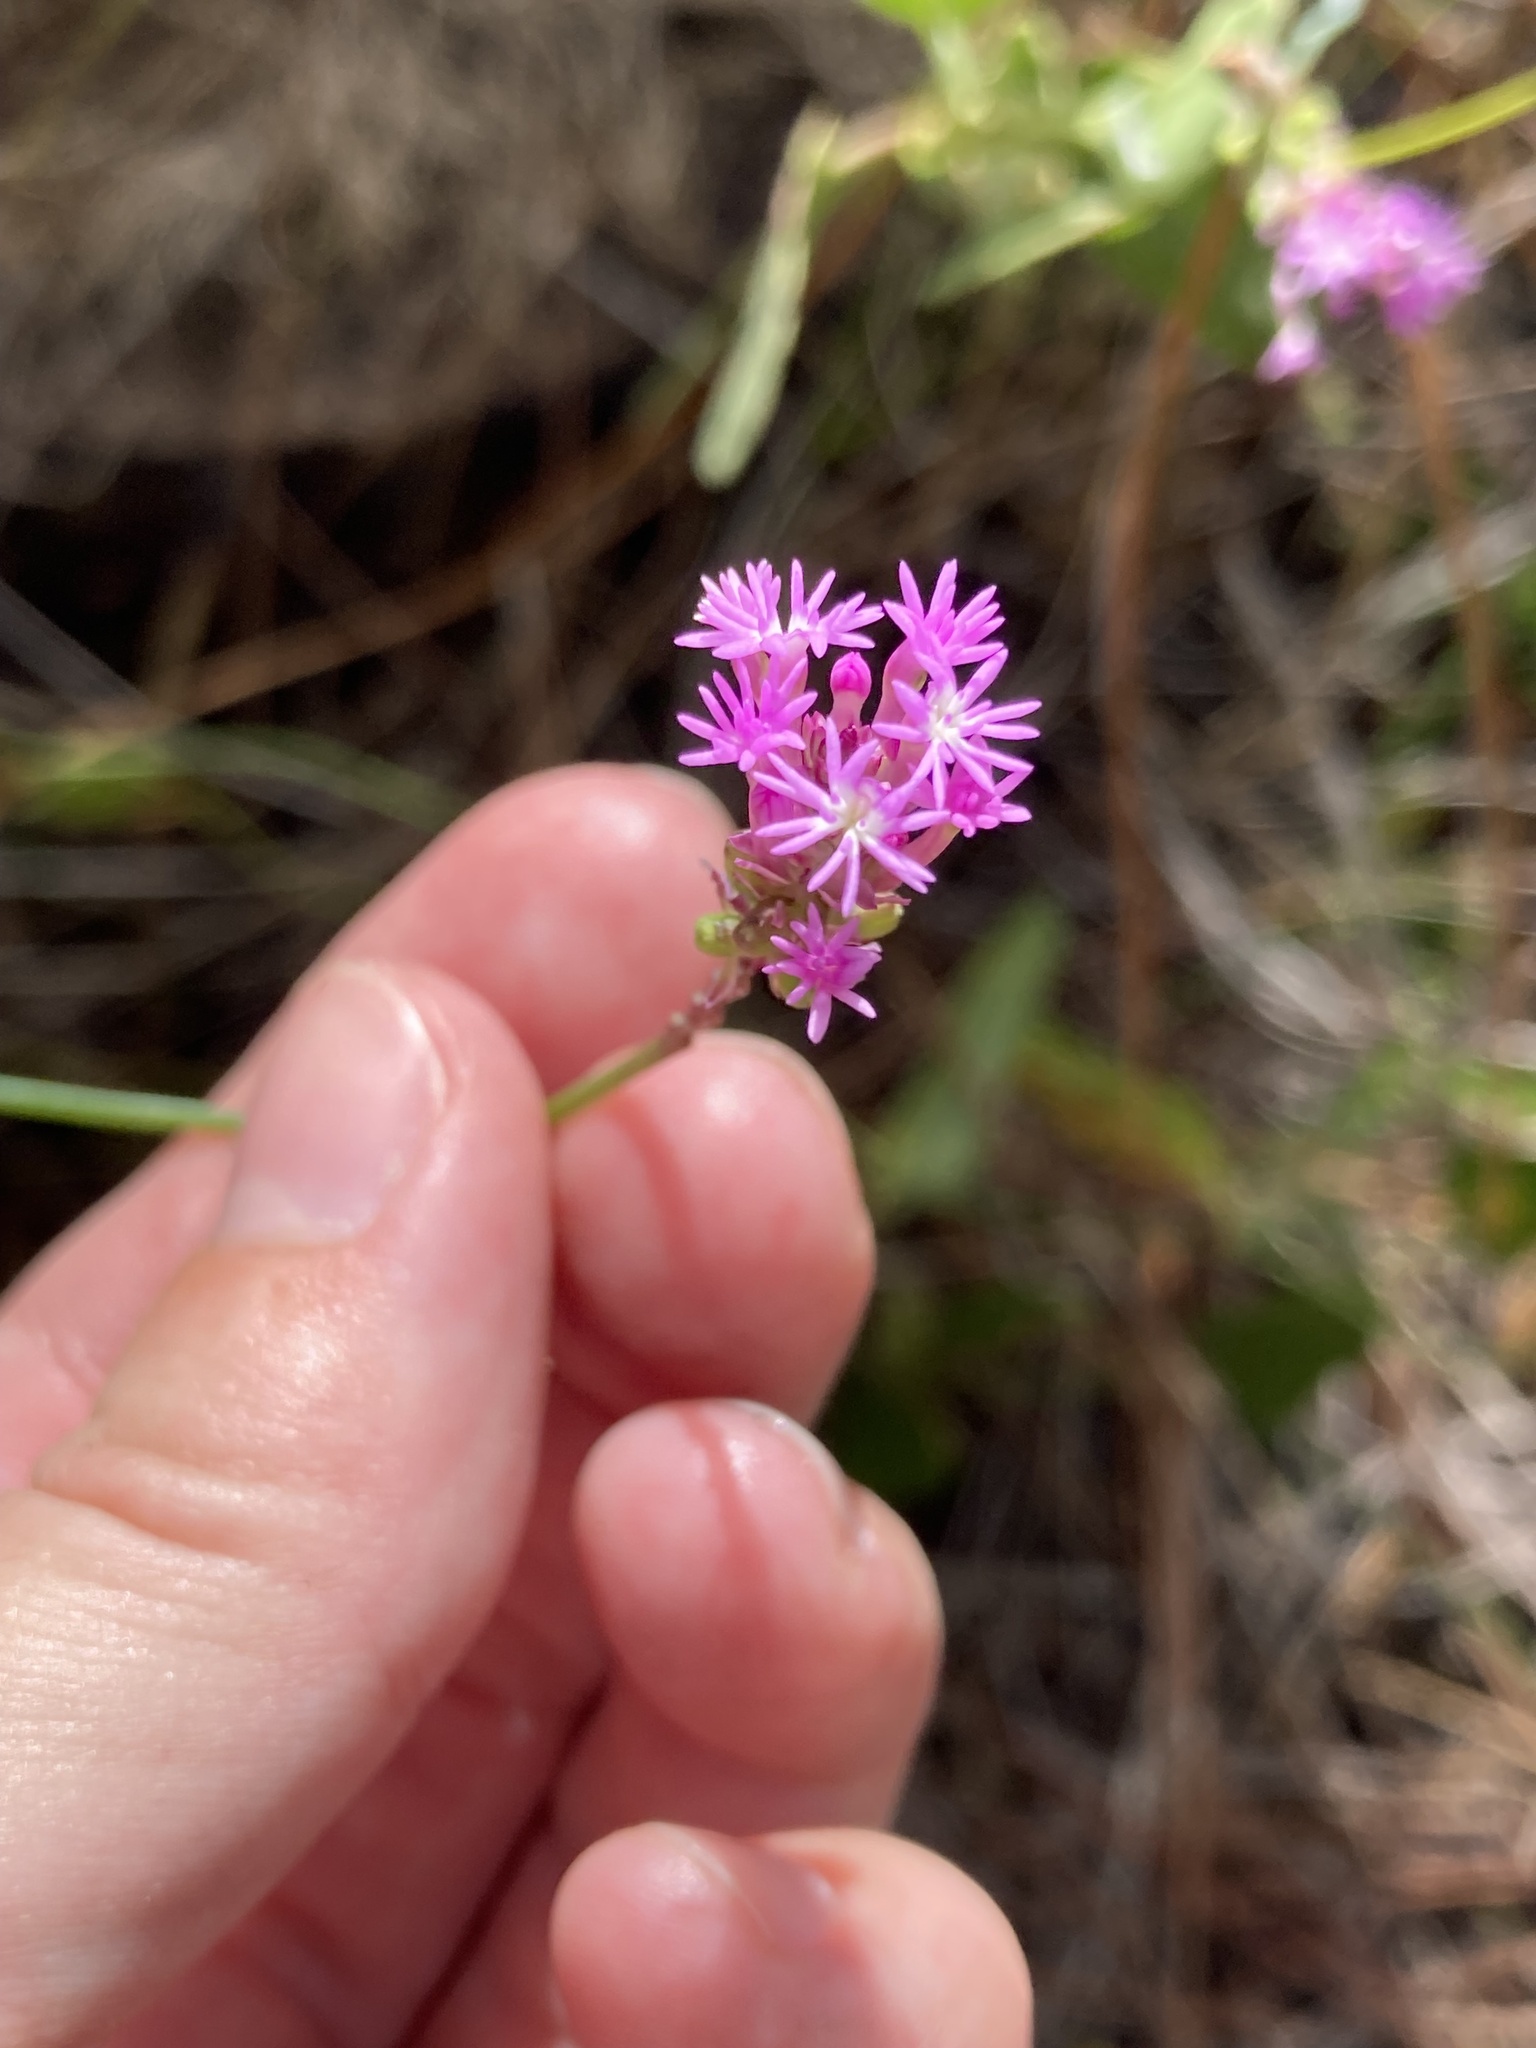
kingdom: Plantae
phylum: Tracheophyta
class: Magnoliopsida
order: Fabales
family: Polygalaceae
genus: Polygala
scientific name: Polygala incarnata
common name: Pink milkwort
